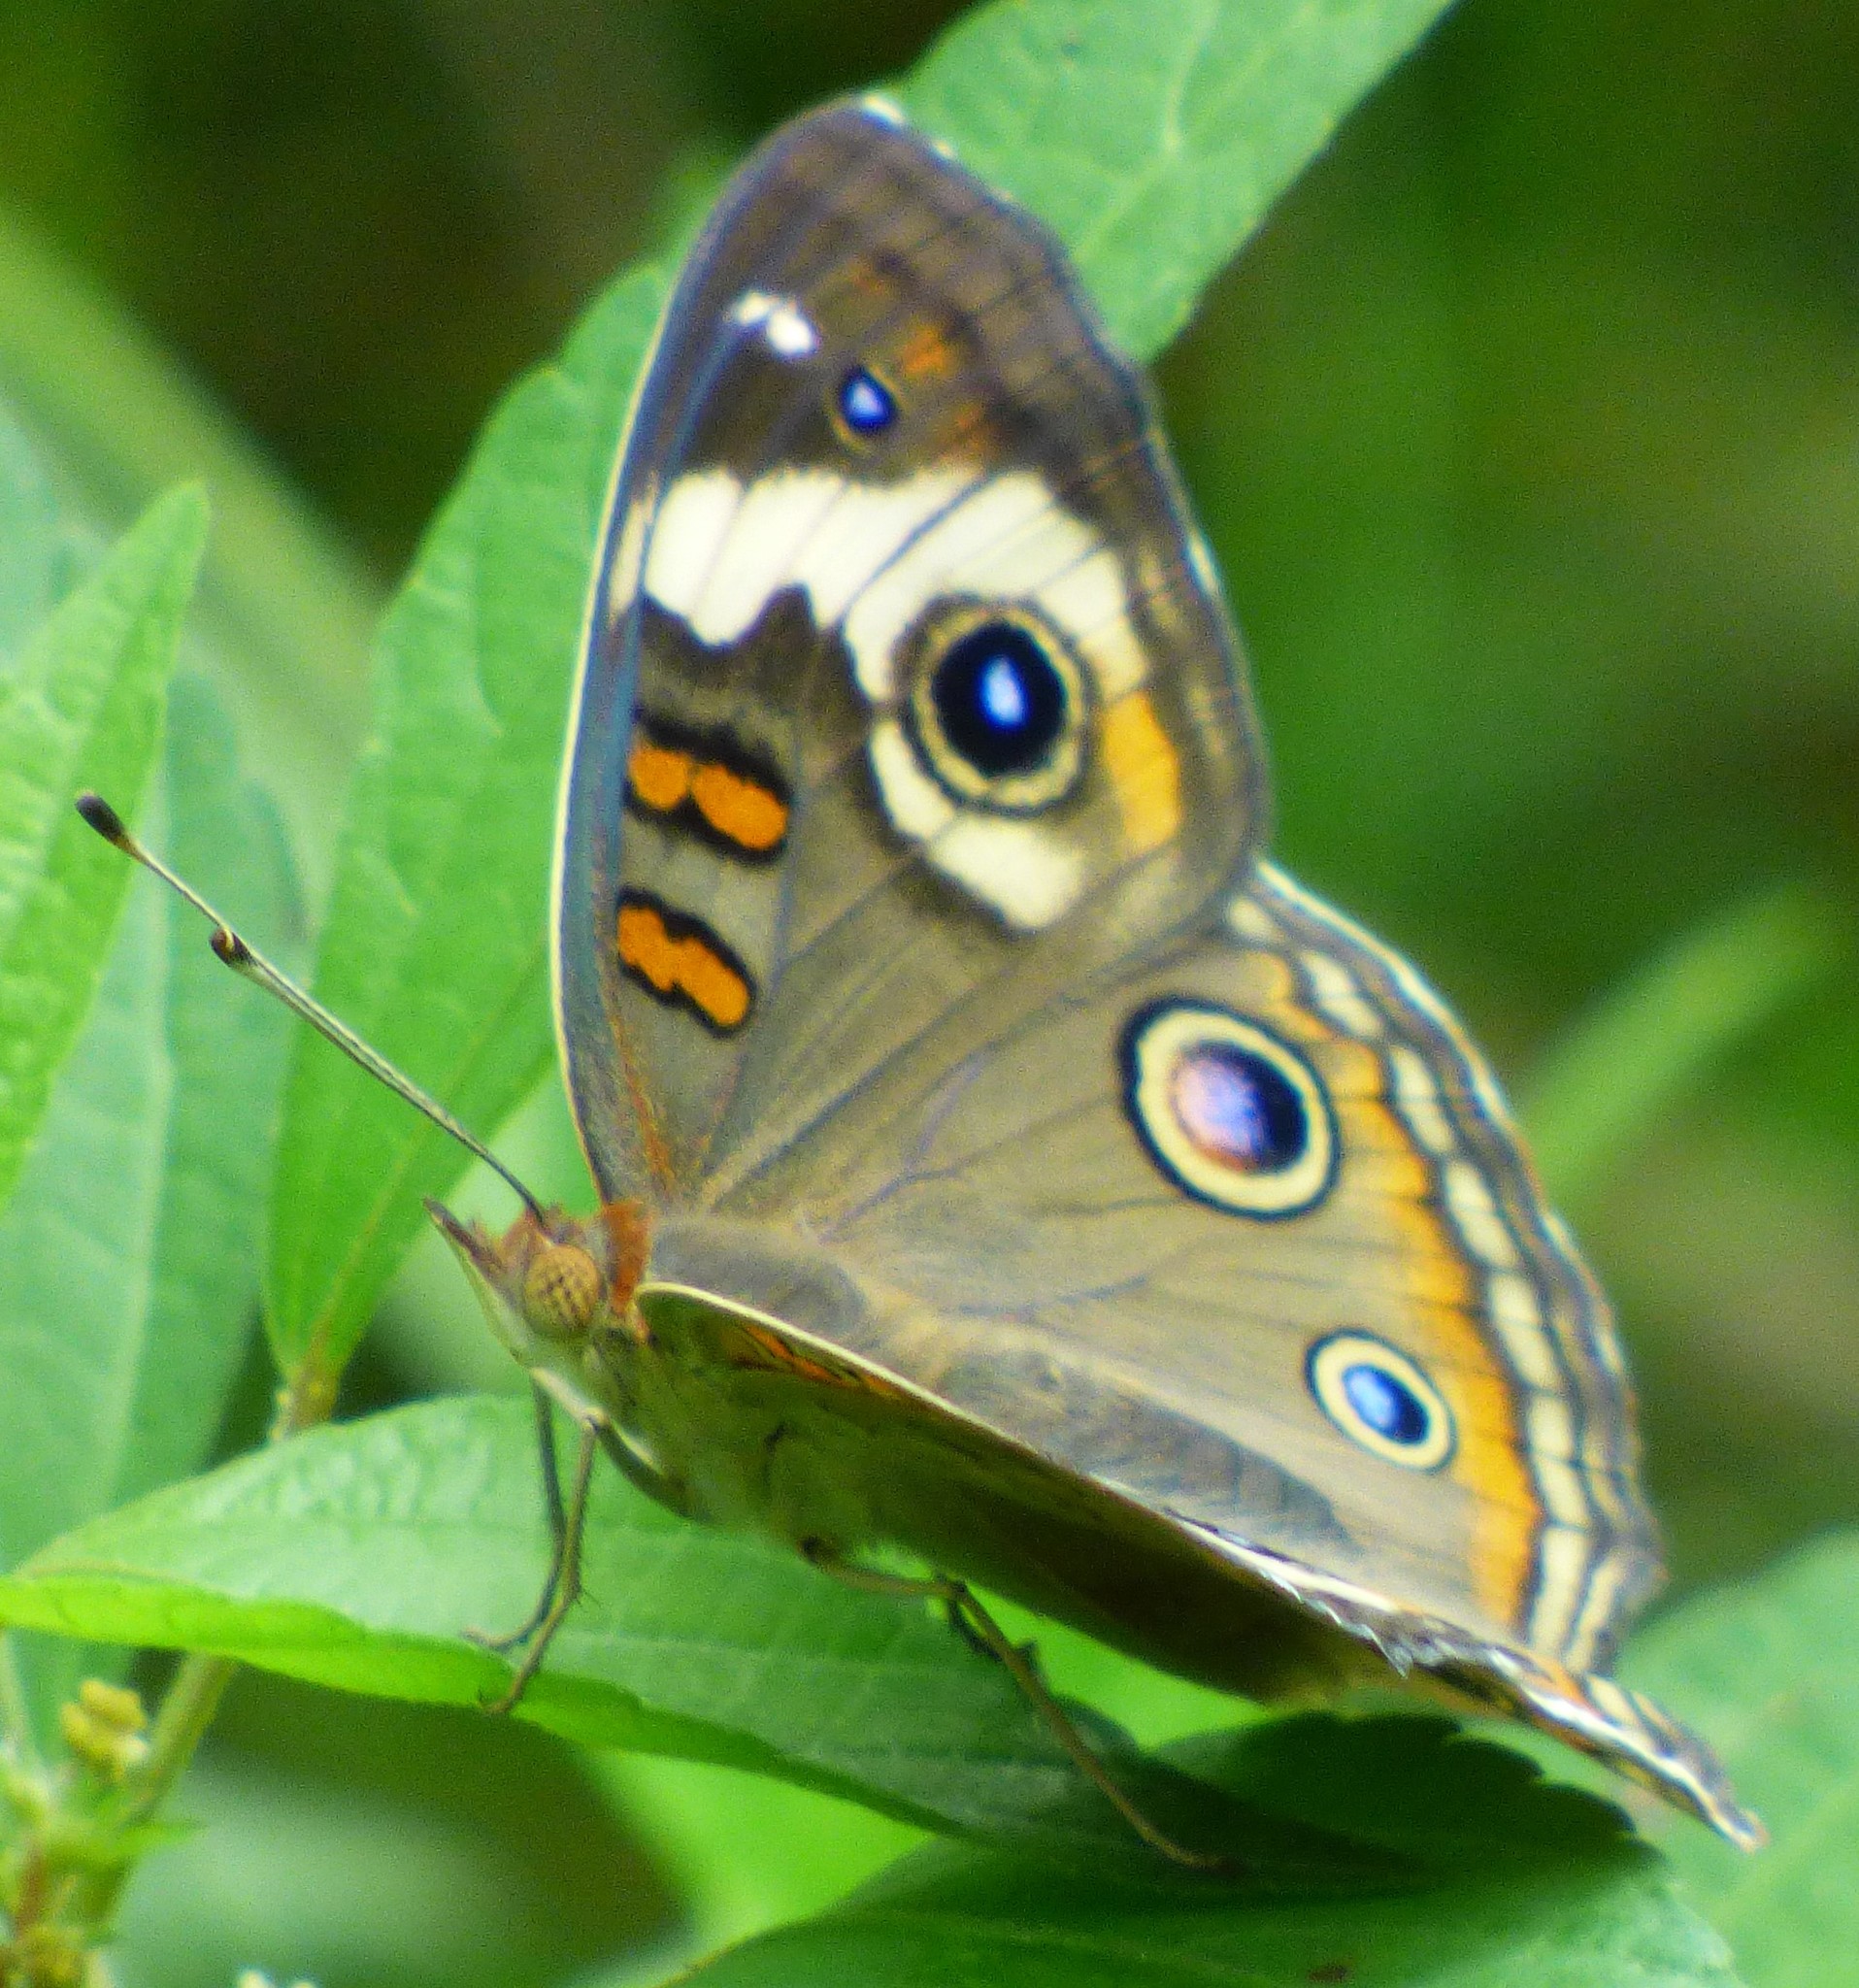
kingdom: Animalia
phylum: Arthropoda
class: Insecta
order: Lepidoptera
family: Nymphalidae
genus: Junonia
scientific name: Junonia coenia
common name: Common buckeye
